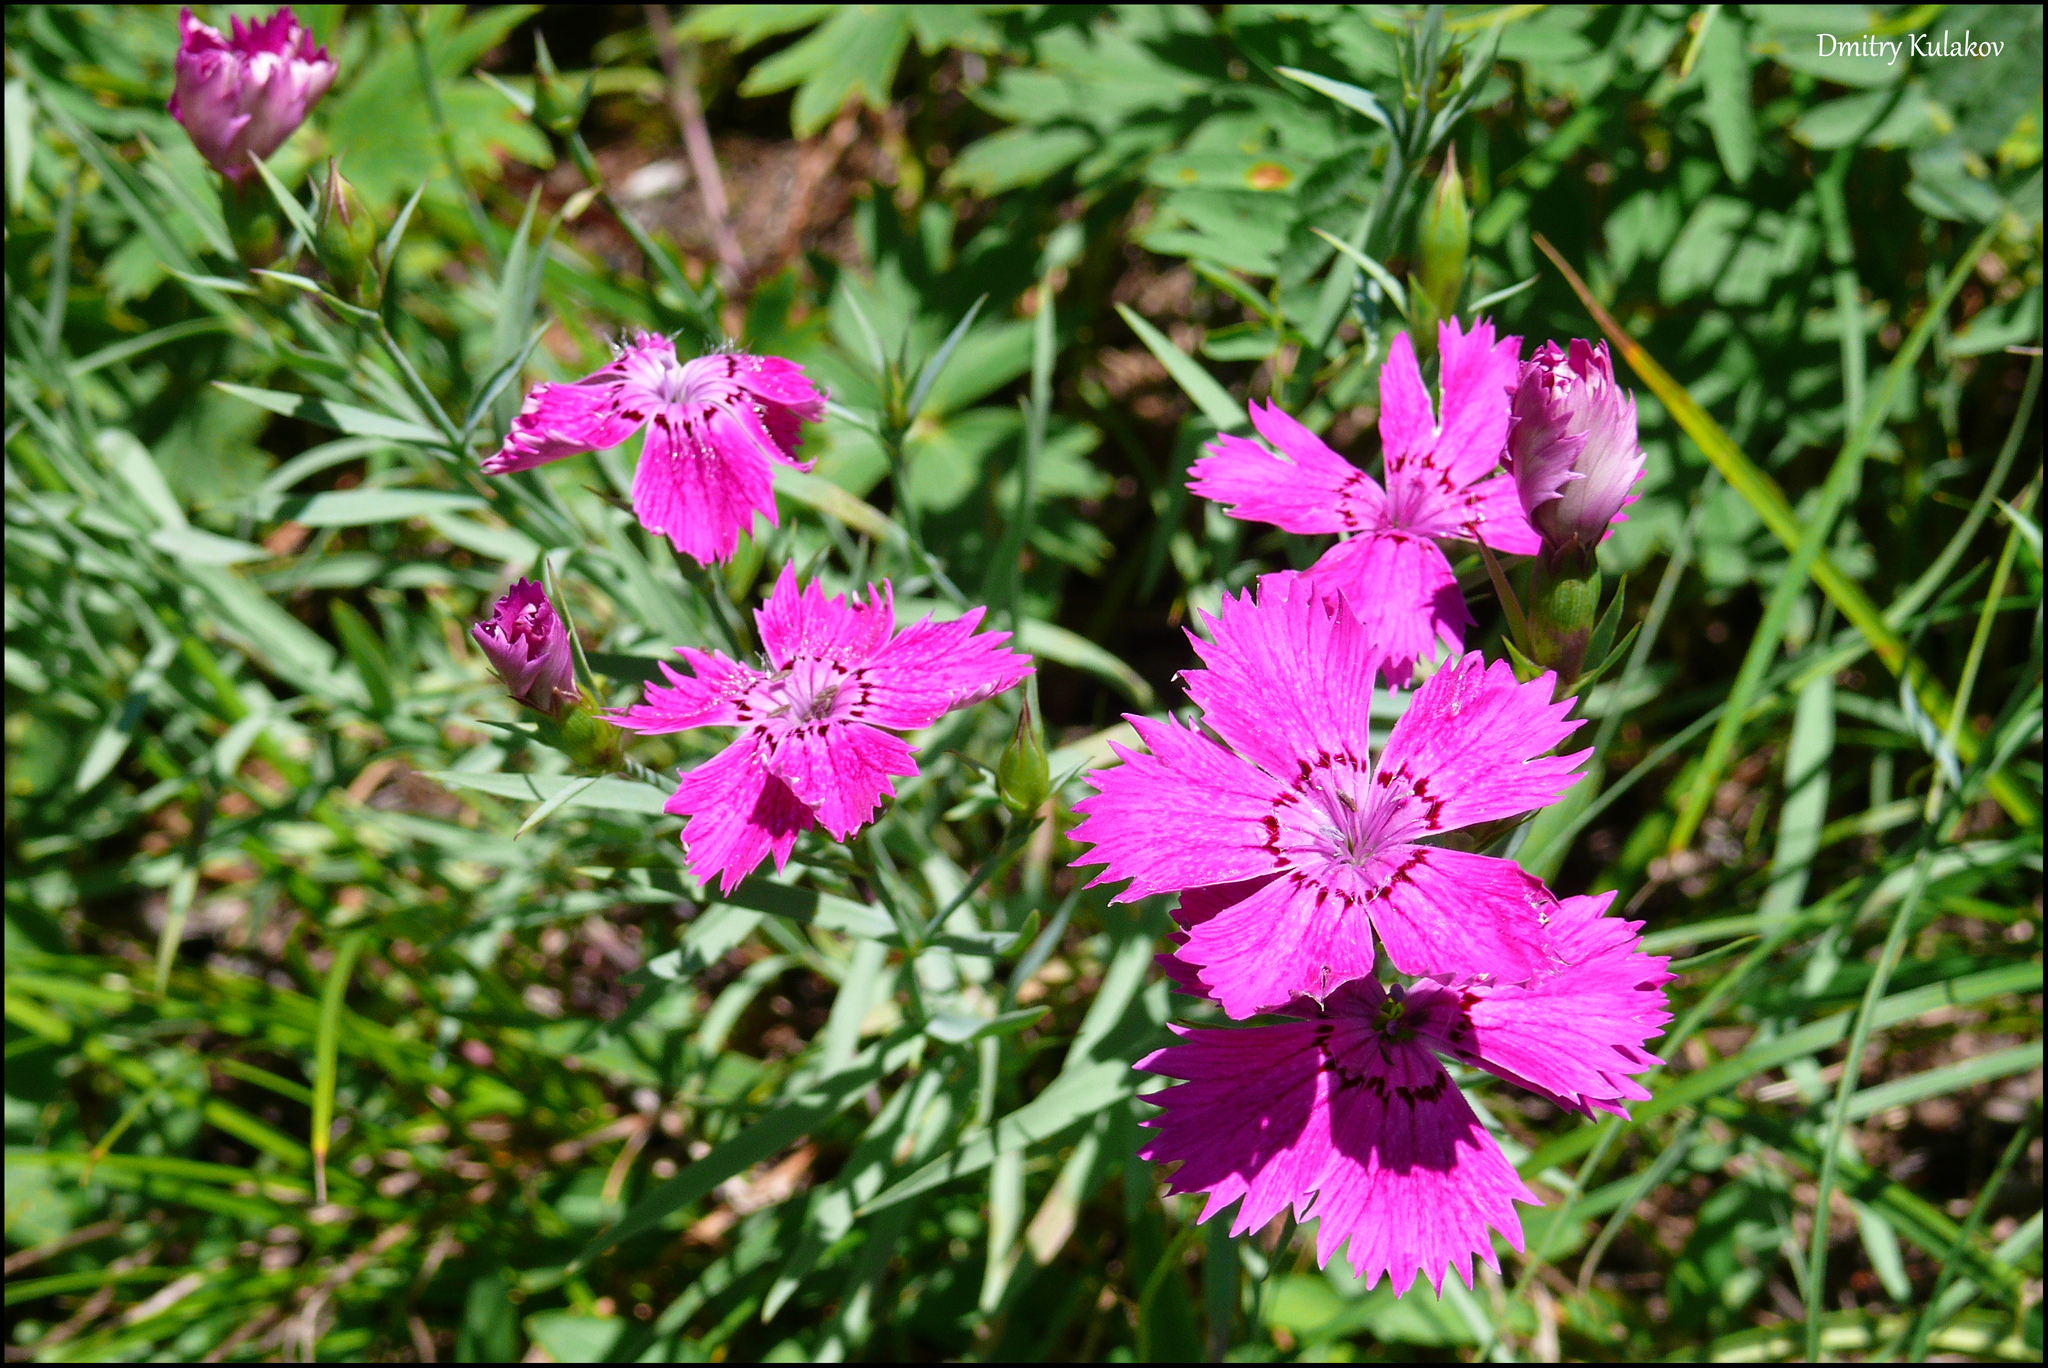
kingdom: Plantae
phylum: Tracheophyta
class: Magnoliopsida
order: Caryophyllales
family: Caryophyllaceae
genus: Dianthus
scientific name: Dianthus chinensis
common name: Rainbow pink
